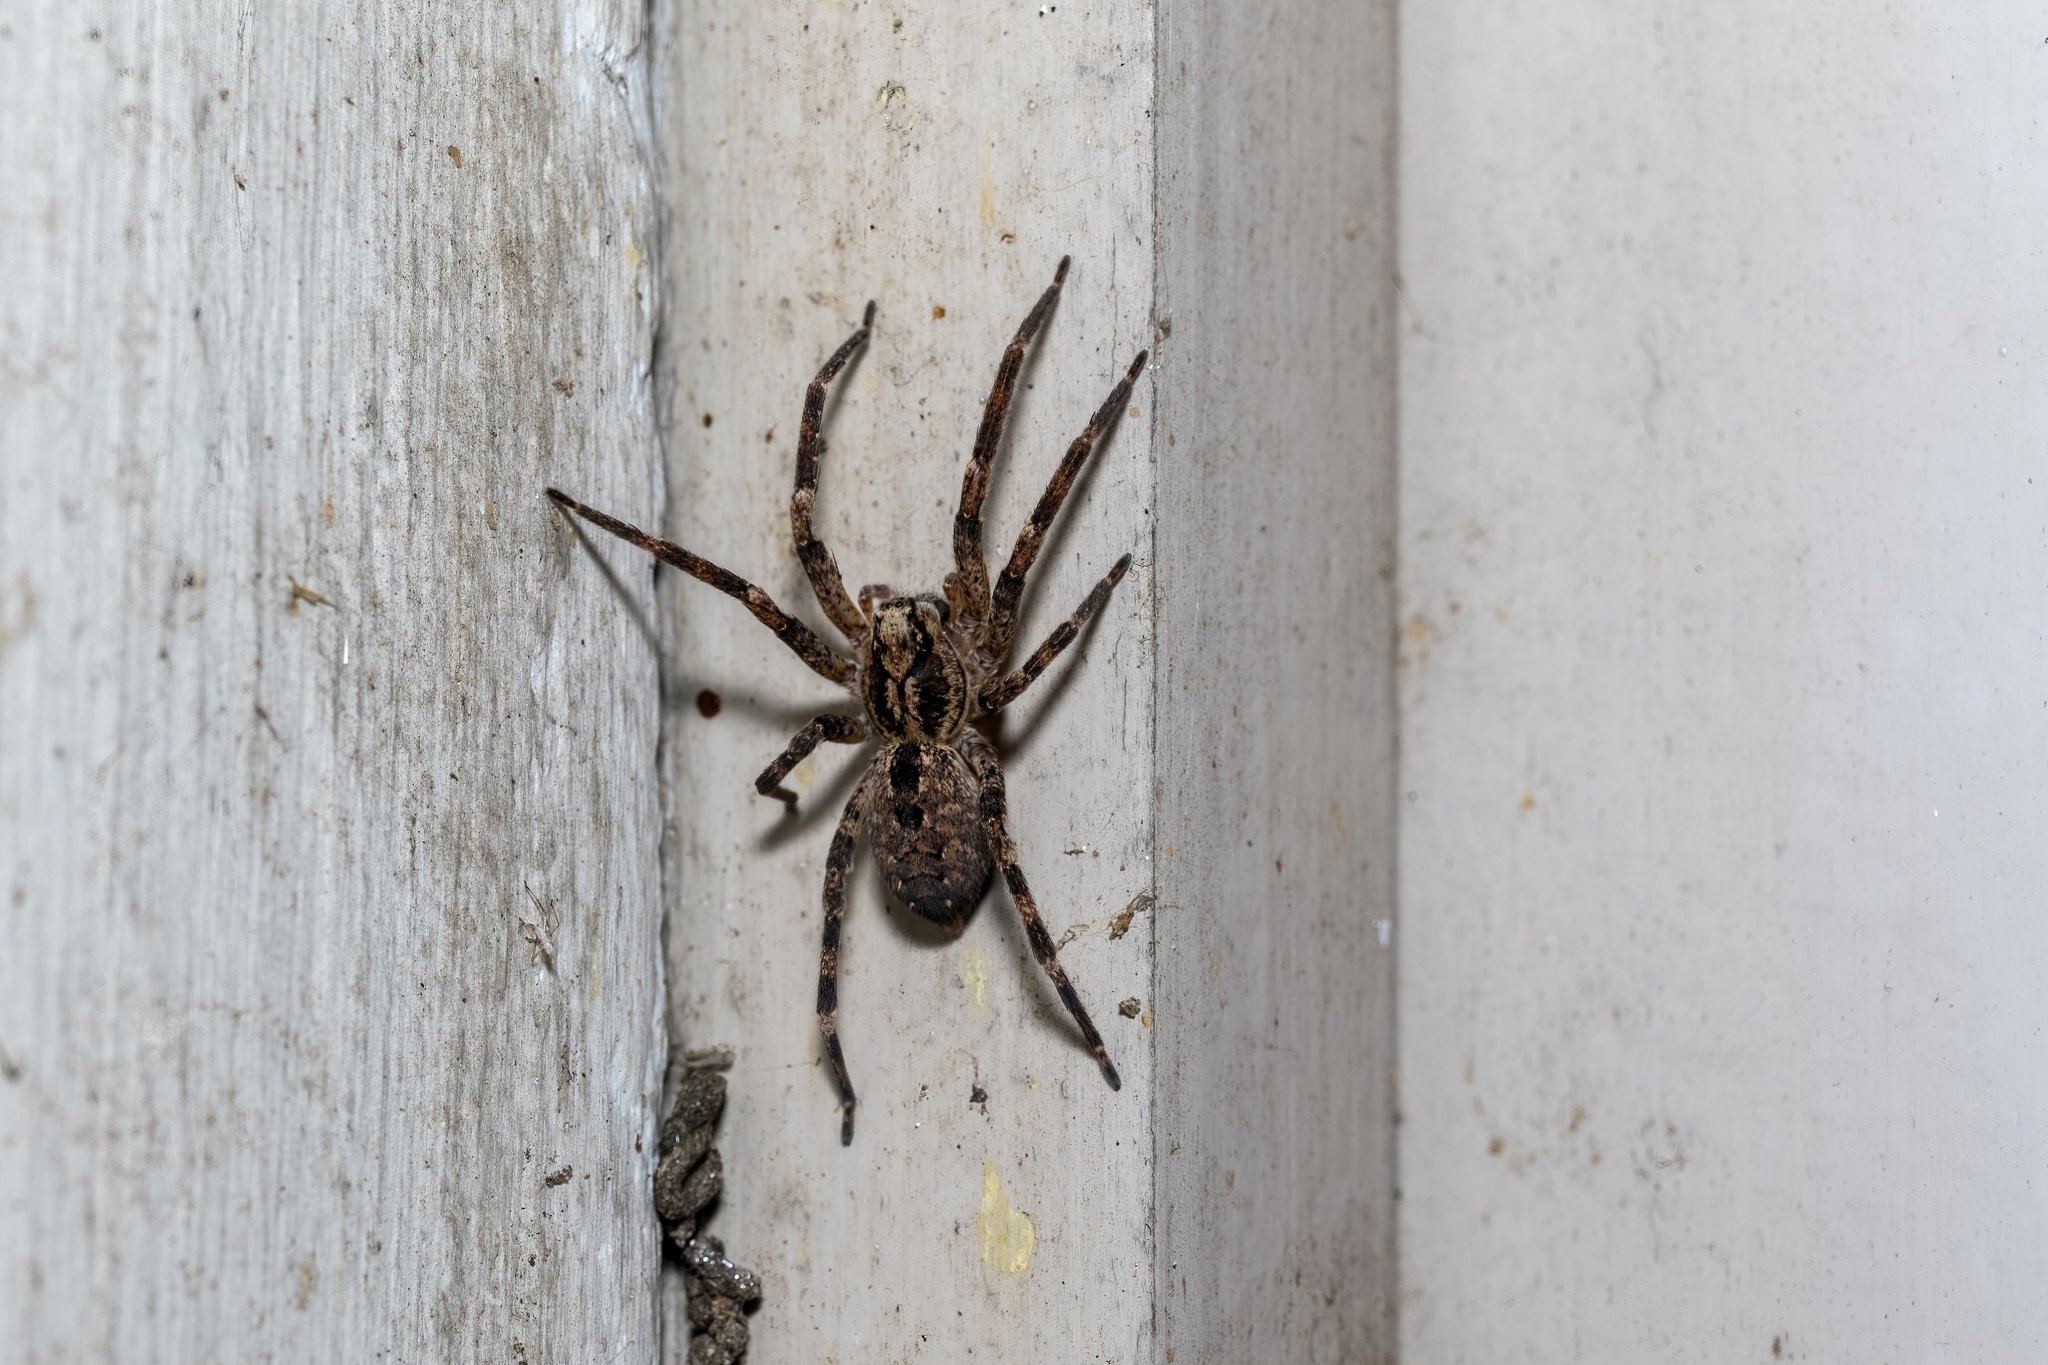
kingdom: Animalia
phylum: Arthropoda
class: Arachnida
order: Araneae
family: Zoropsidae
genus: Zoropsis
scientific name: Zoropsis spinimana
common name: Zoropsid spider
